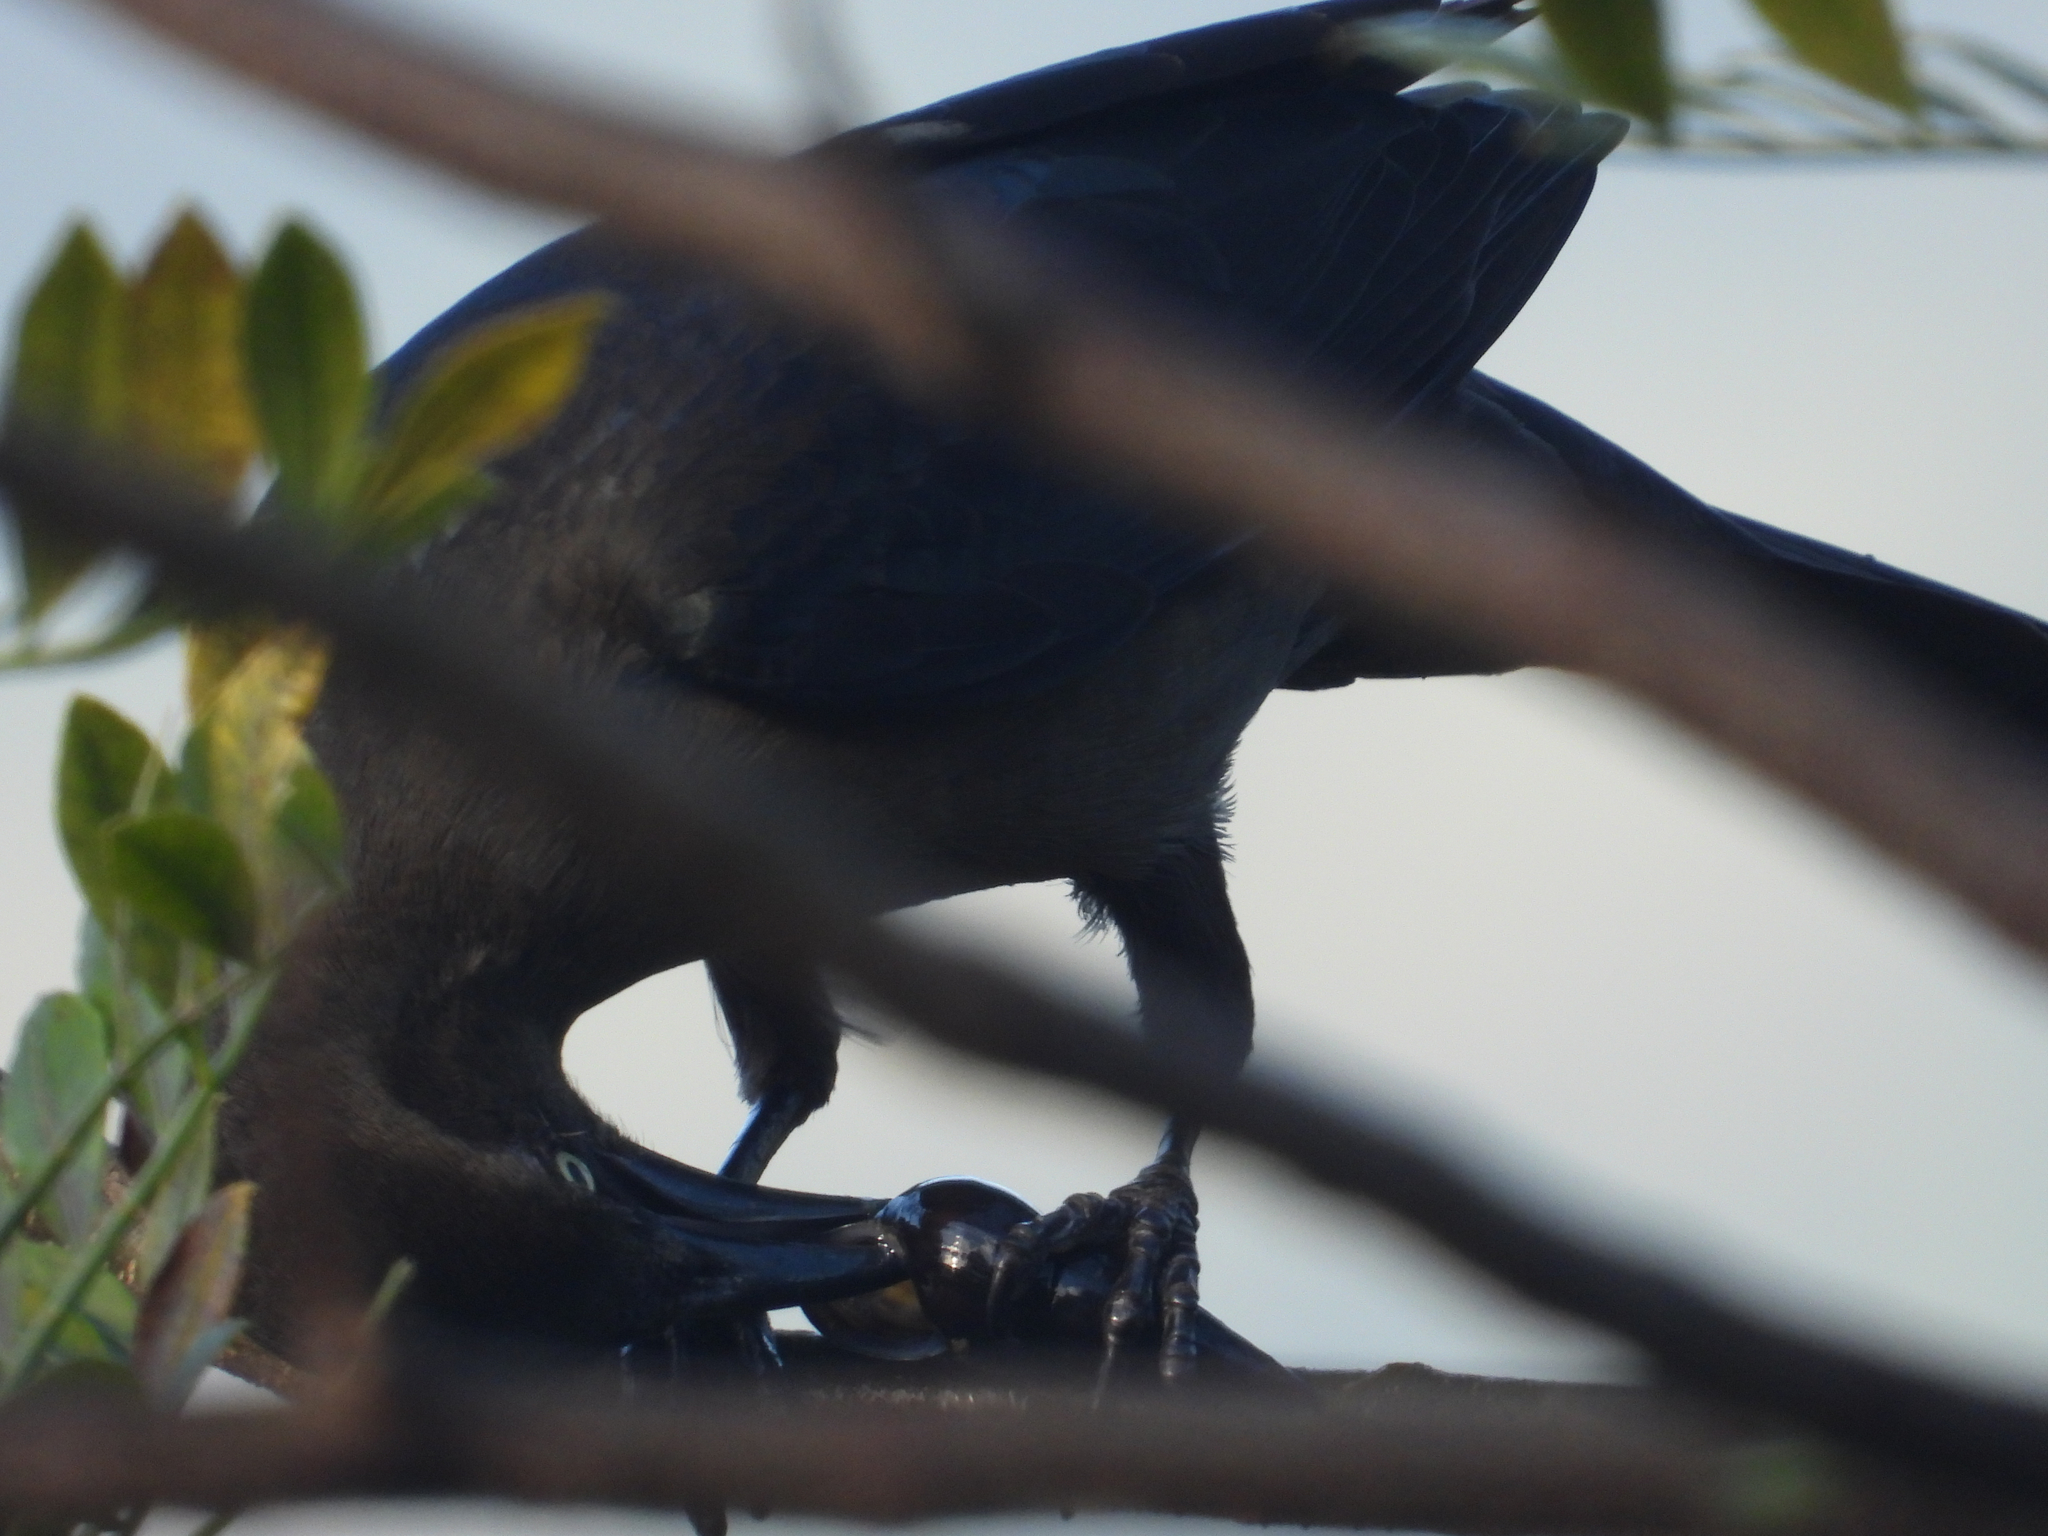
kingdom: Animalia
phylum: Chordata
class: Aves
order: Passeriformes
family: Icteridae
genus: Quiscalus
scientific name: Quiscalus mexicanus
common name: Great-tailed grackle
